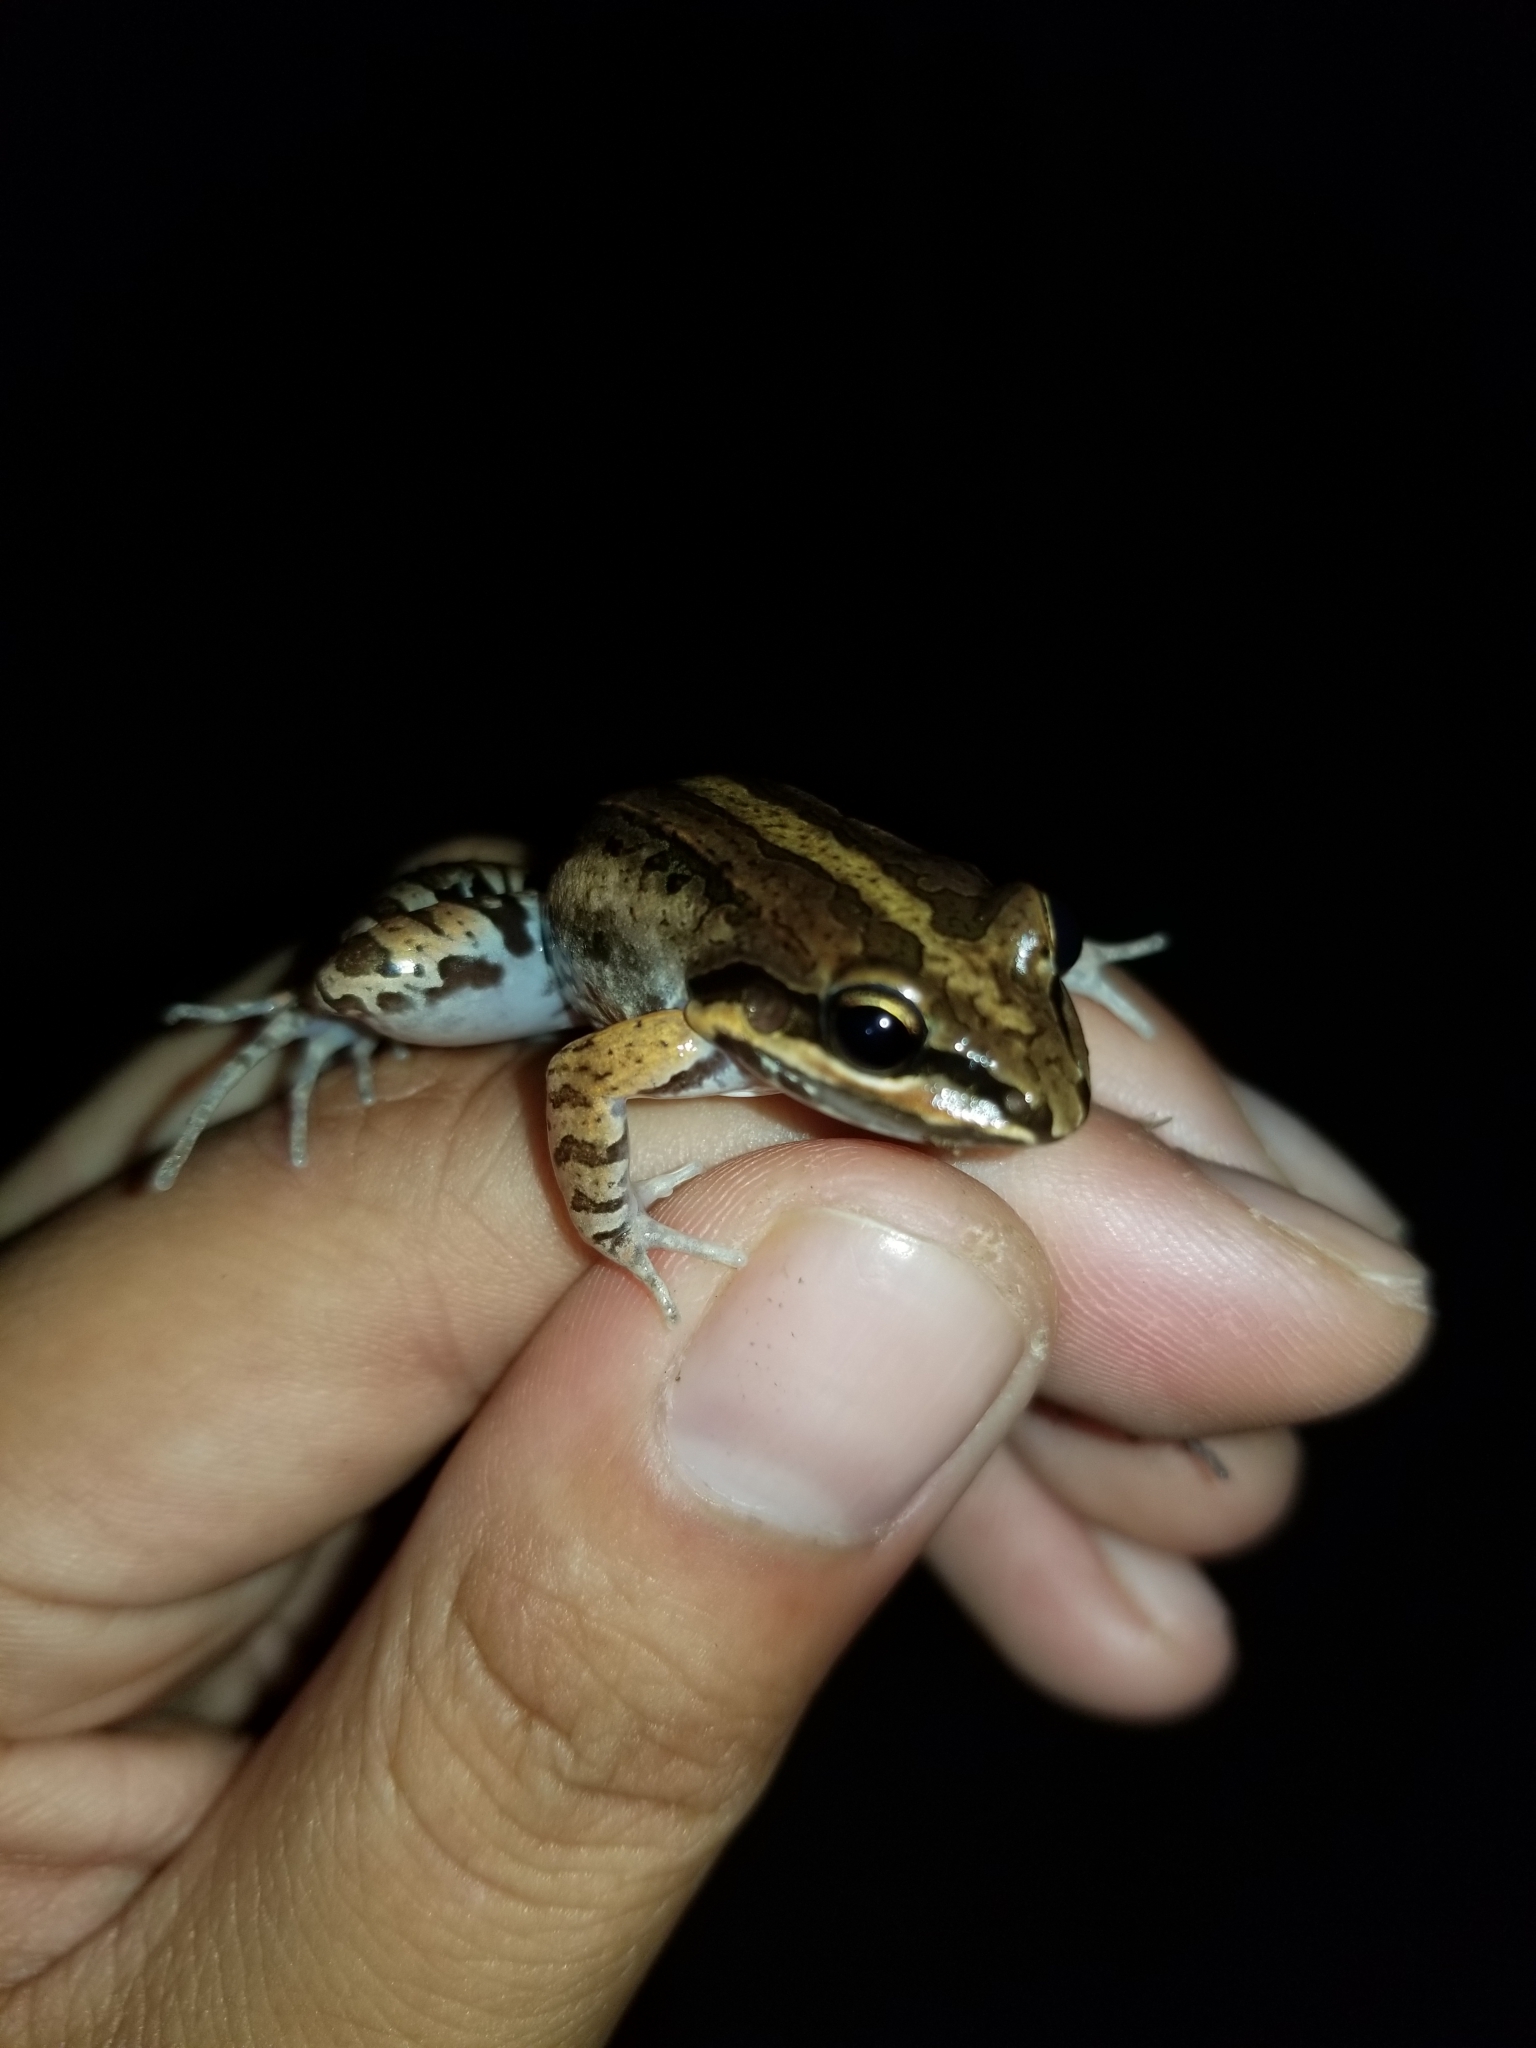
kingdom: Animalia
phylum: Chordata
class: Amphibia
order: Anura
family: Leptodactylidae
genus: Leptodactylus
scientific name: Leptodactylus albilabris
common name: Caribbean white-lipped frog
